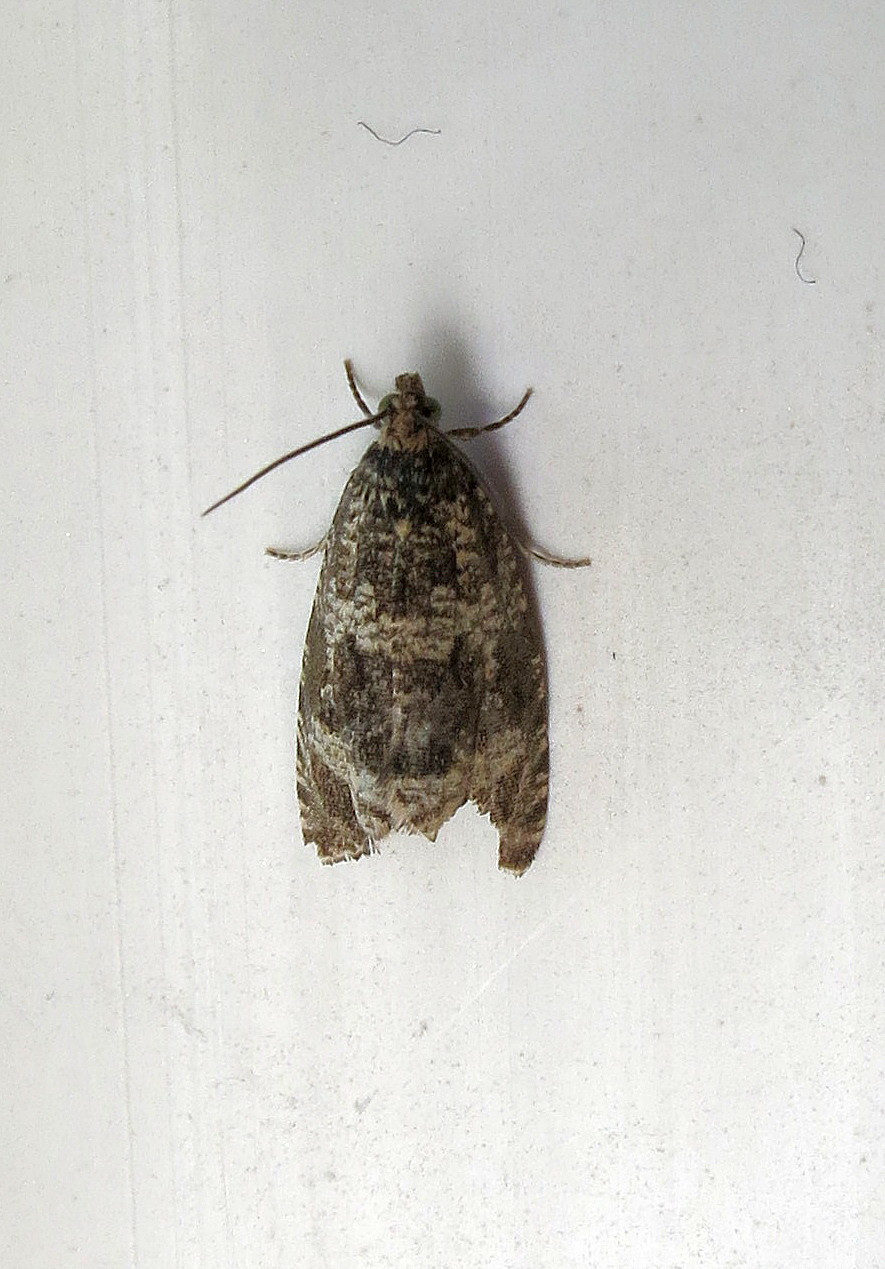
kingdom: Animalia
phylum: Arthropoda
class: Insecta
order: Lepidoptera
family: Tortricidae
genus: Syricoris
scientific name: Syricoris lacunana
